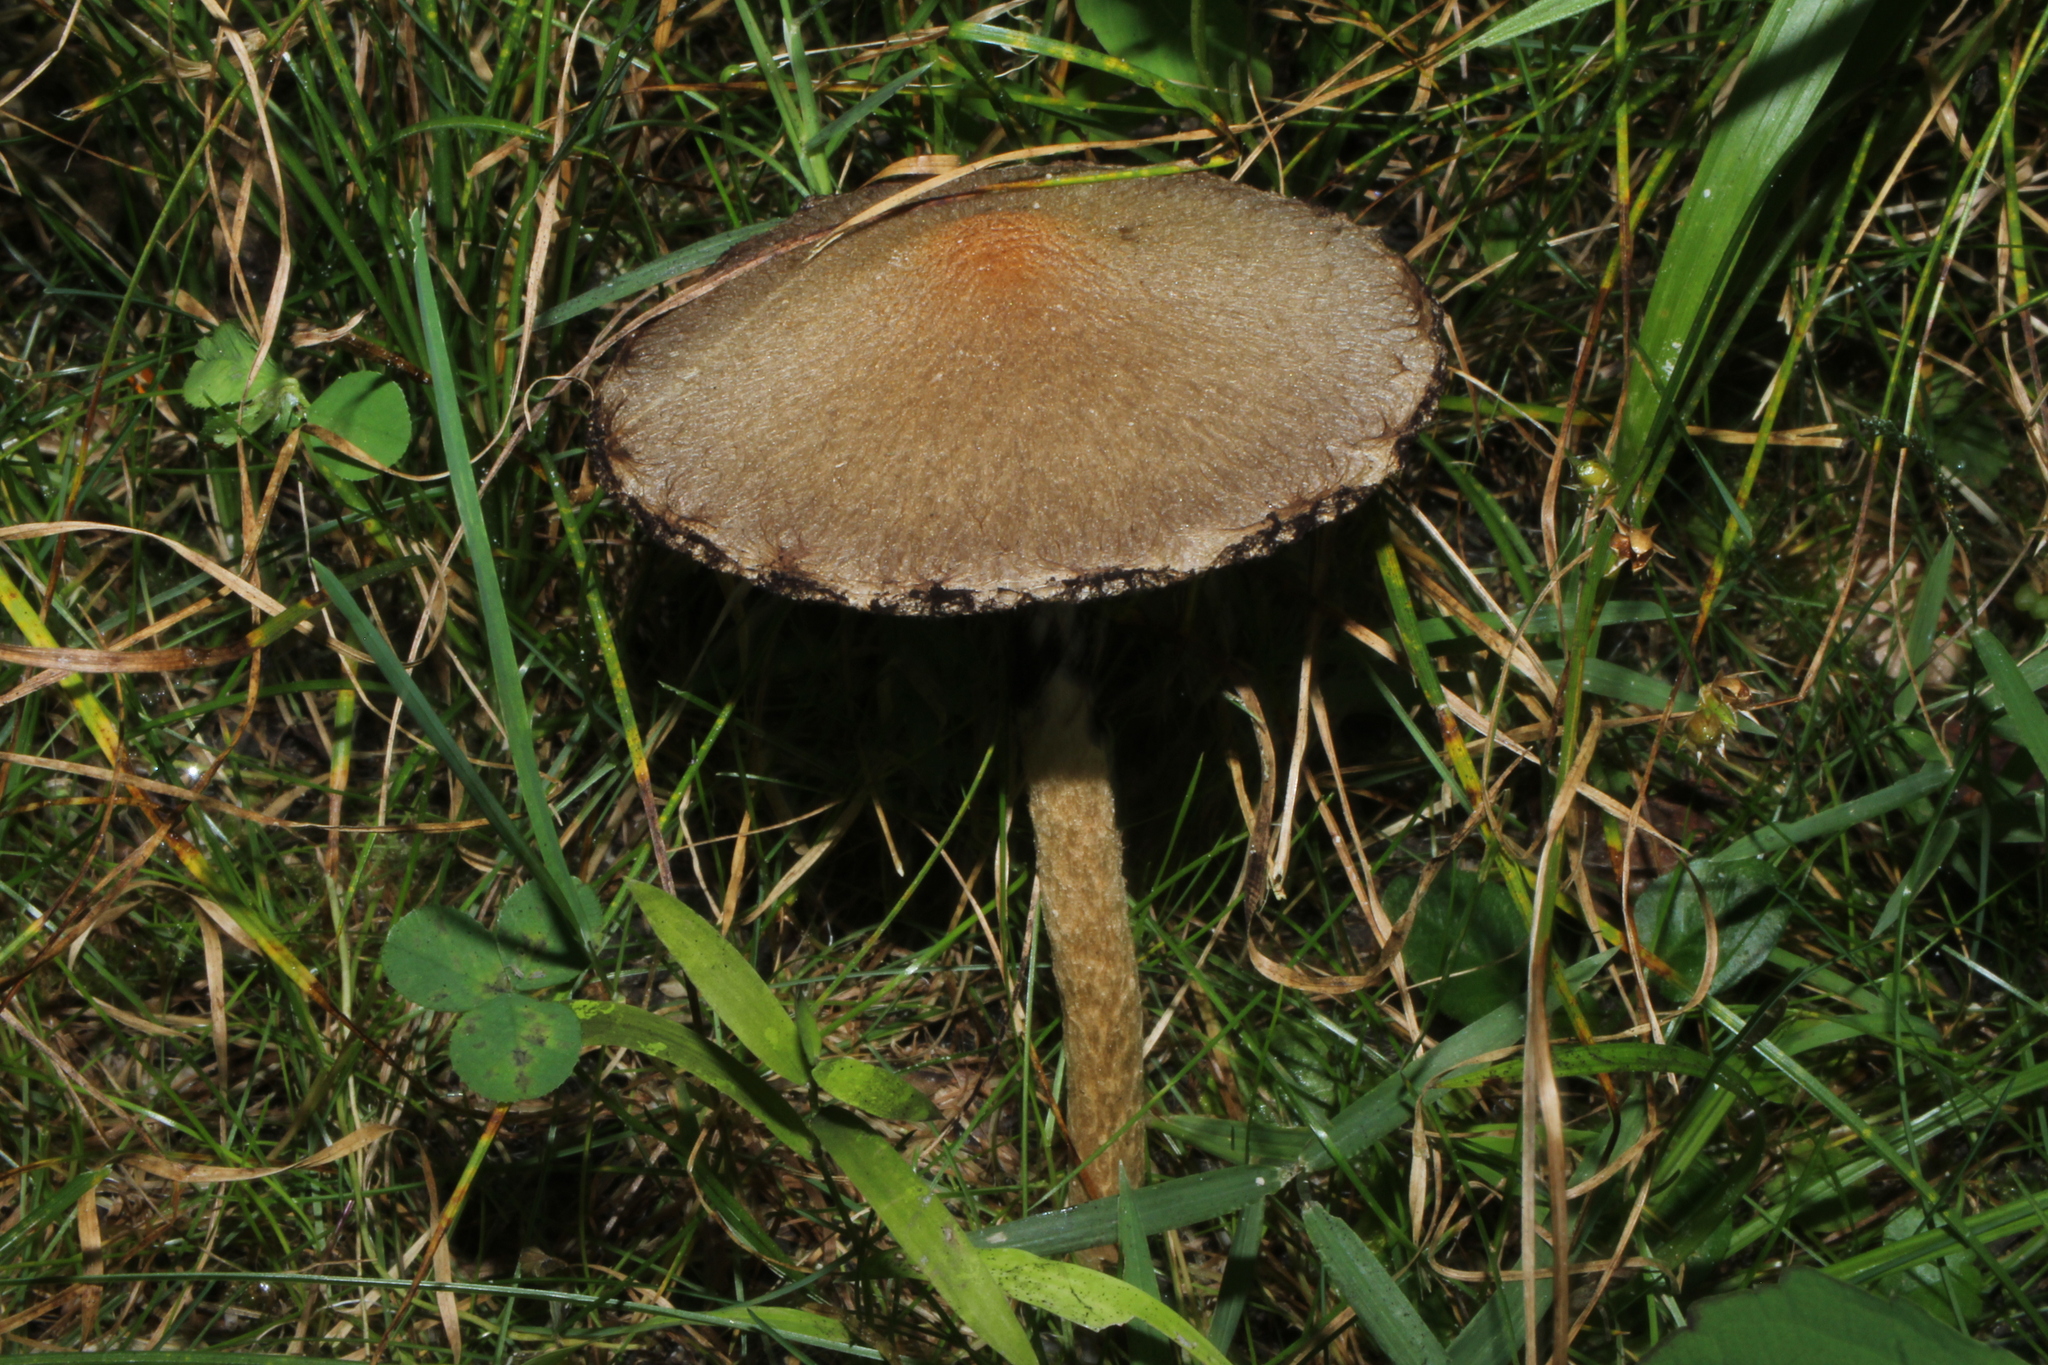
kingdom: Fungi
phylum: Basidiomycota
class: Agaricomycetes
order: Agaricales
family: Psathyrellaceae
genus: Lacrymaria
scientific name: Lacrymaria lacrymabunda
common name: Weeping widow
